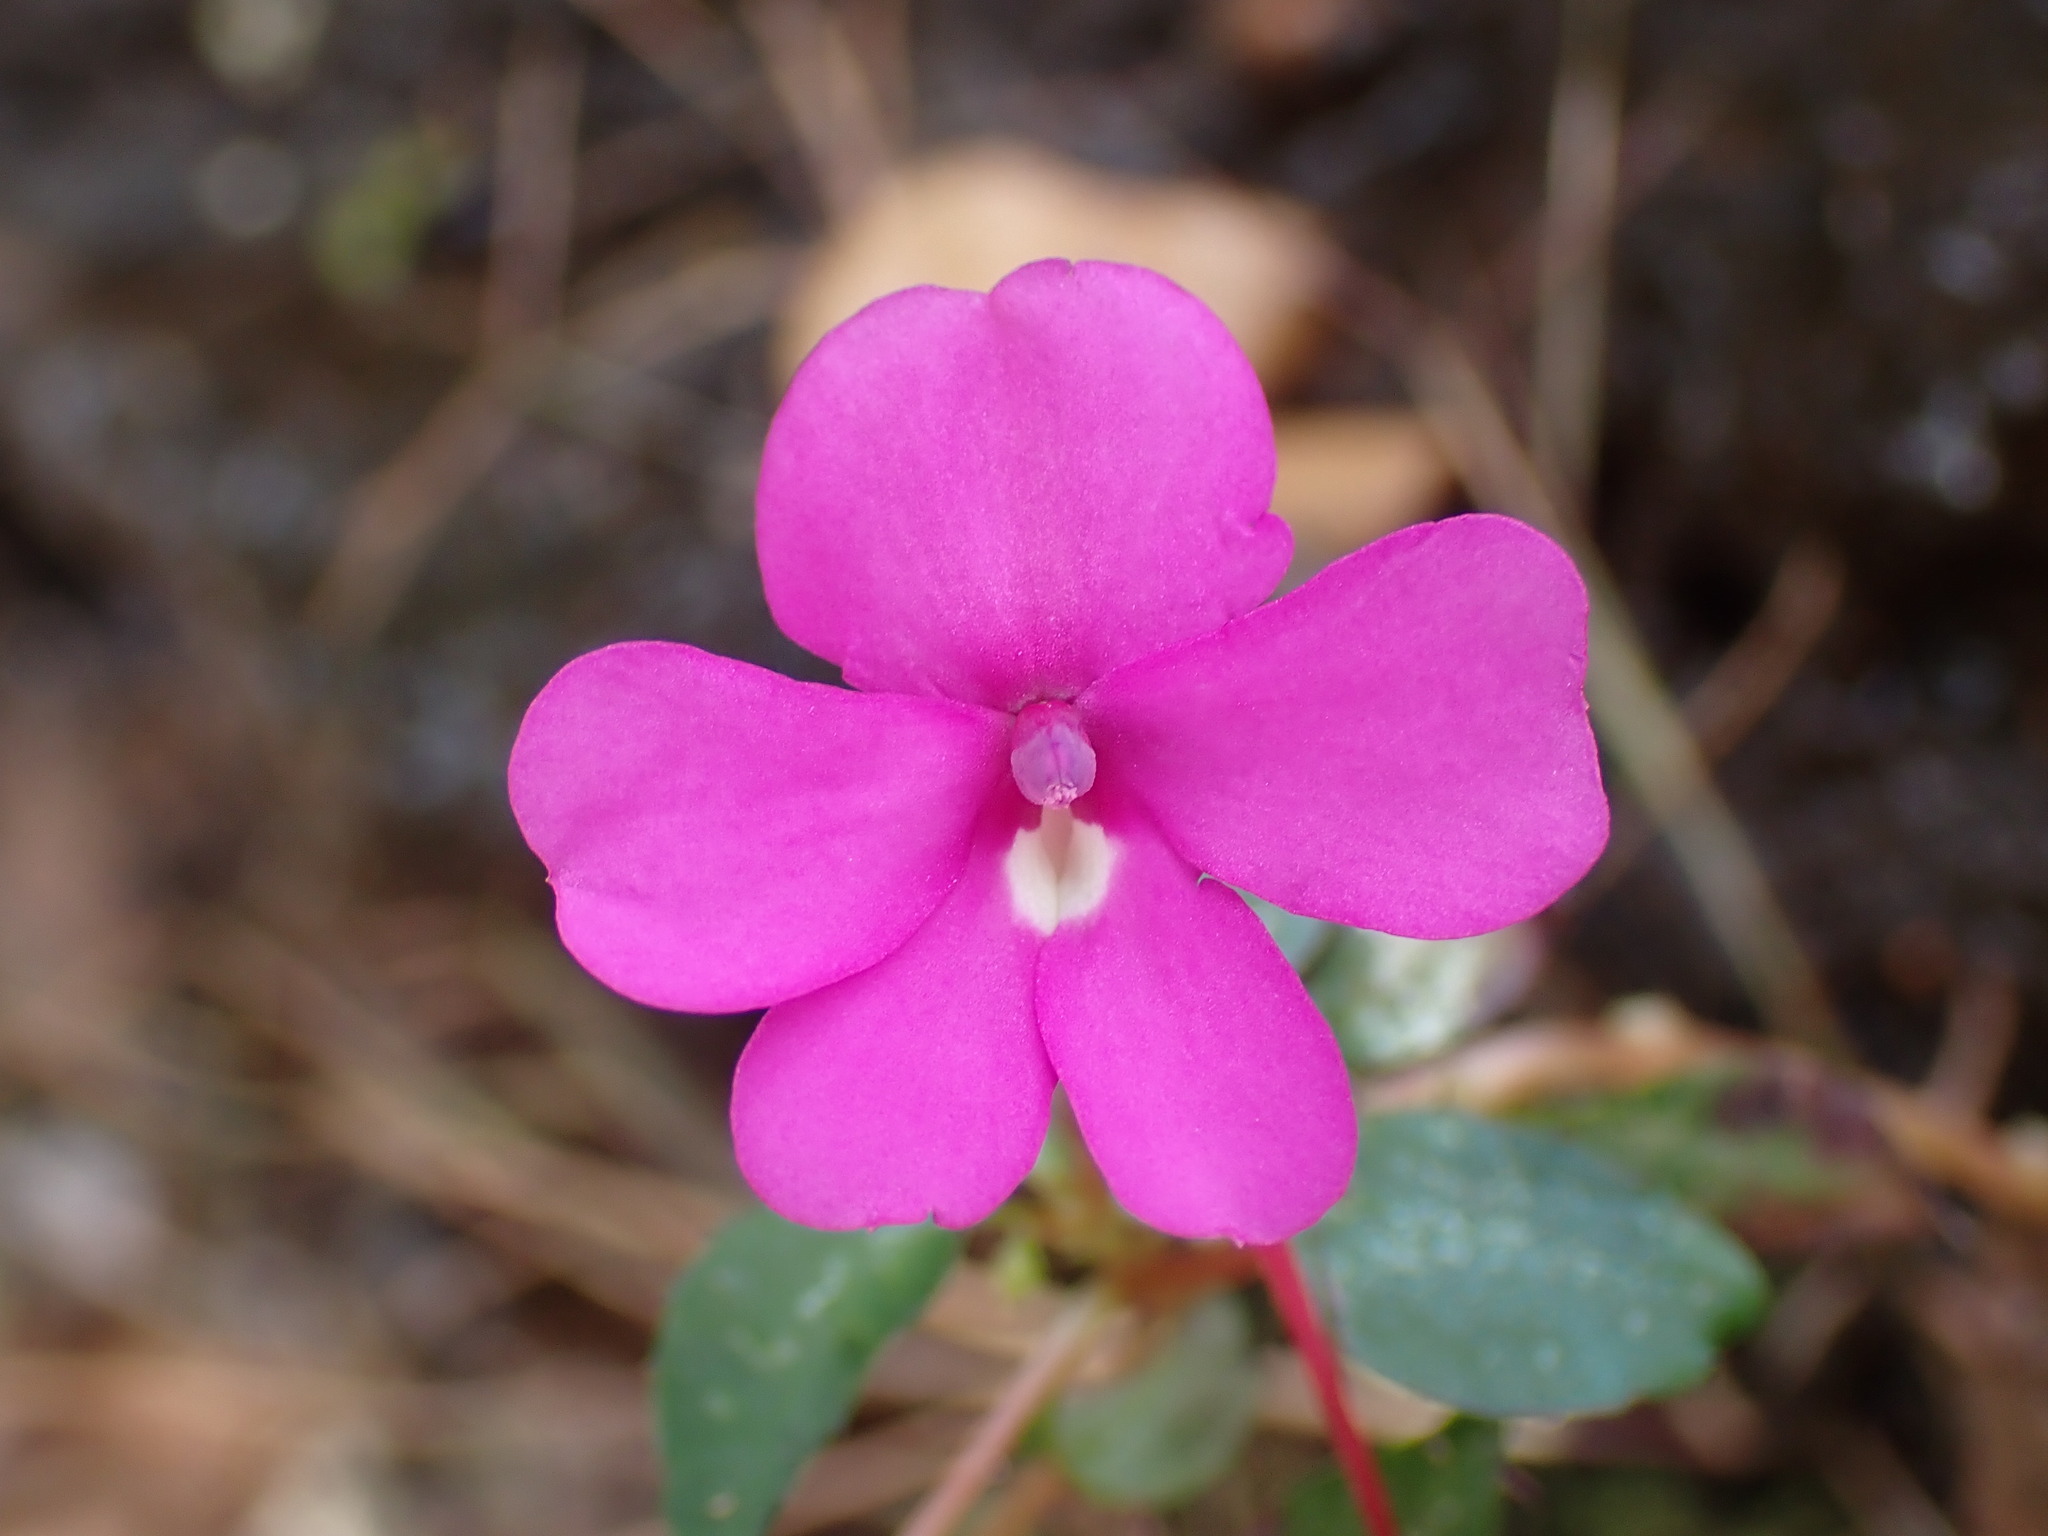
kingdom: Plantae
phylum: Tracheophyta
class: Magnoliopsida
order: Ericales
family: Balsaminaceae
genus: Impatiens
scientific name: Impatiens semounensis
